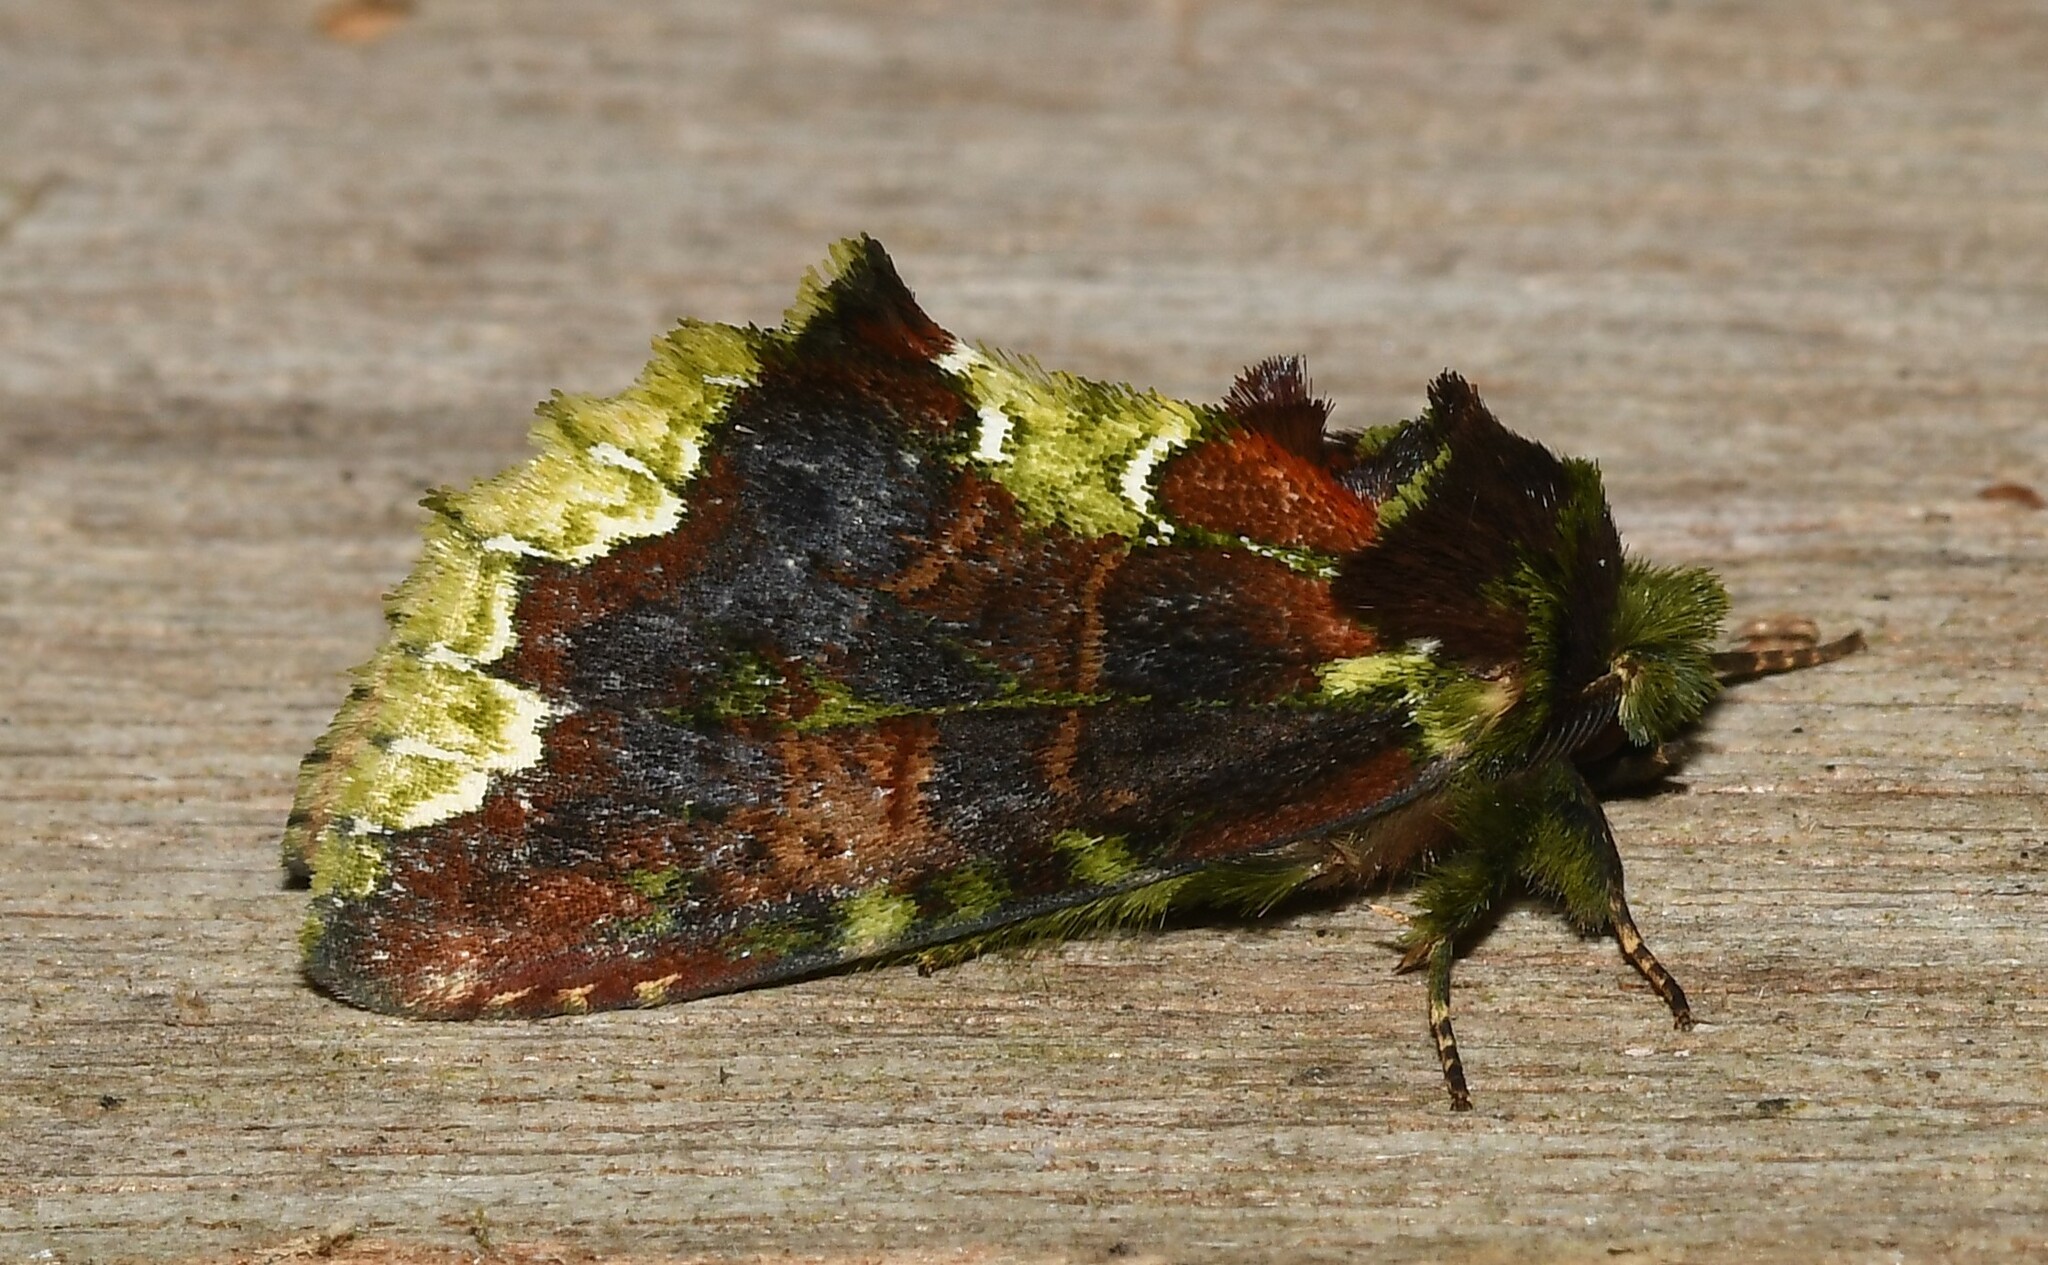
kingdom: Animalia
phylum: Arthropoda
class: Insecta
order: Lepidoptera
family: Notodontidae
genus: Urgedra
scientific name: Urgedra
